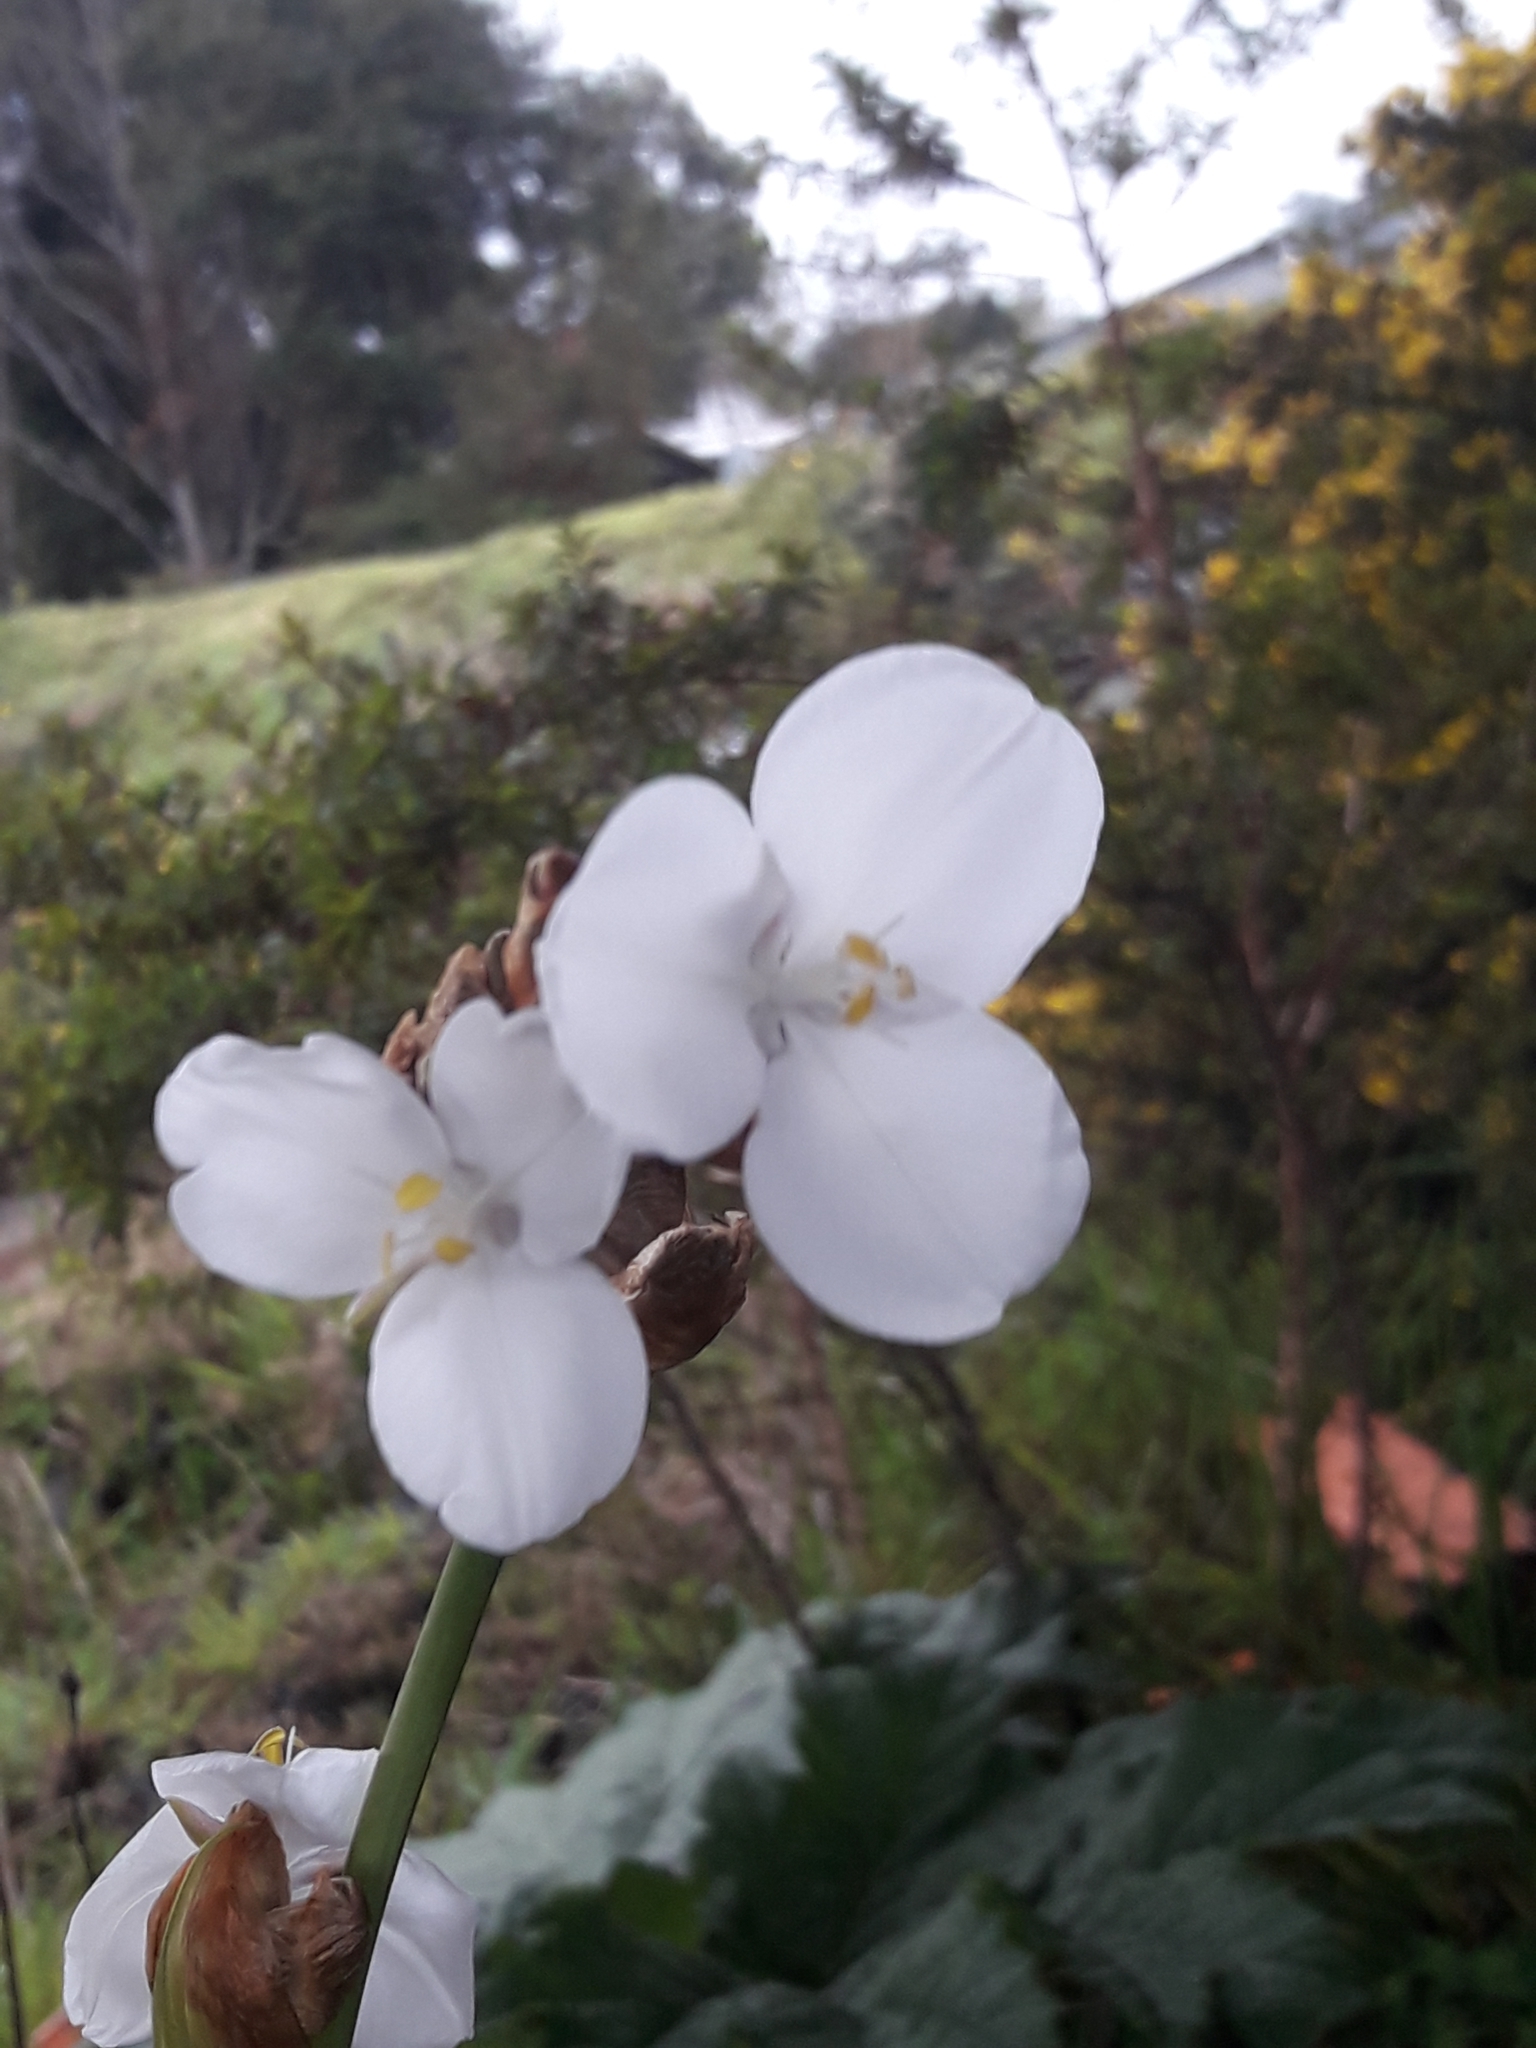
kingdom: Plantae
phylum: Tracheophyta
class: Liliopsida
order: Asparagales
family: Iridaceae
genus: Libertia
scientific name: Libertia chilensis
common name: Satin flower
